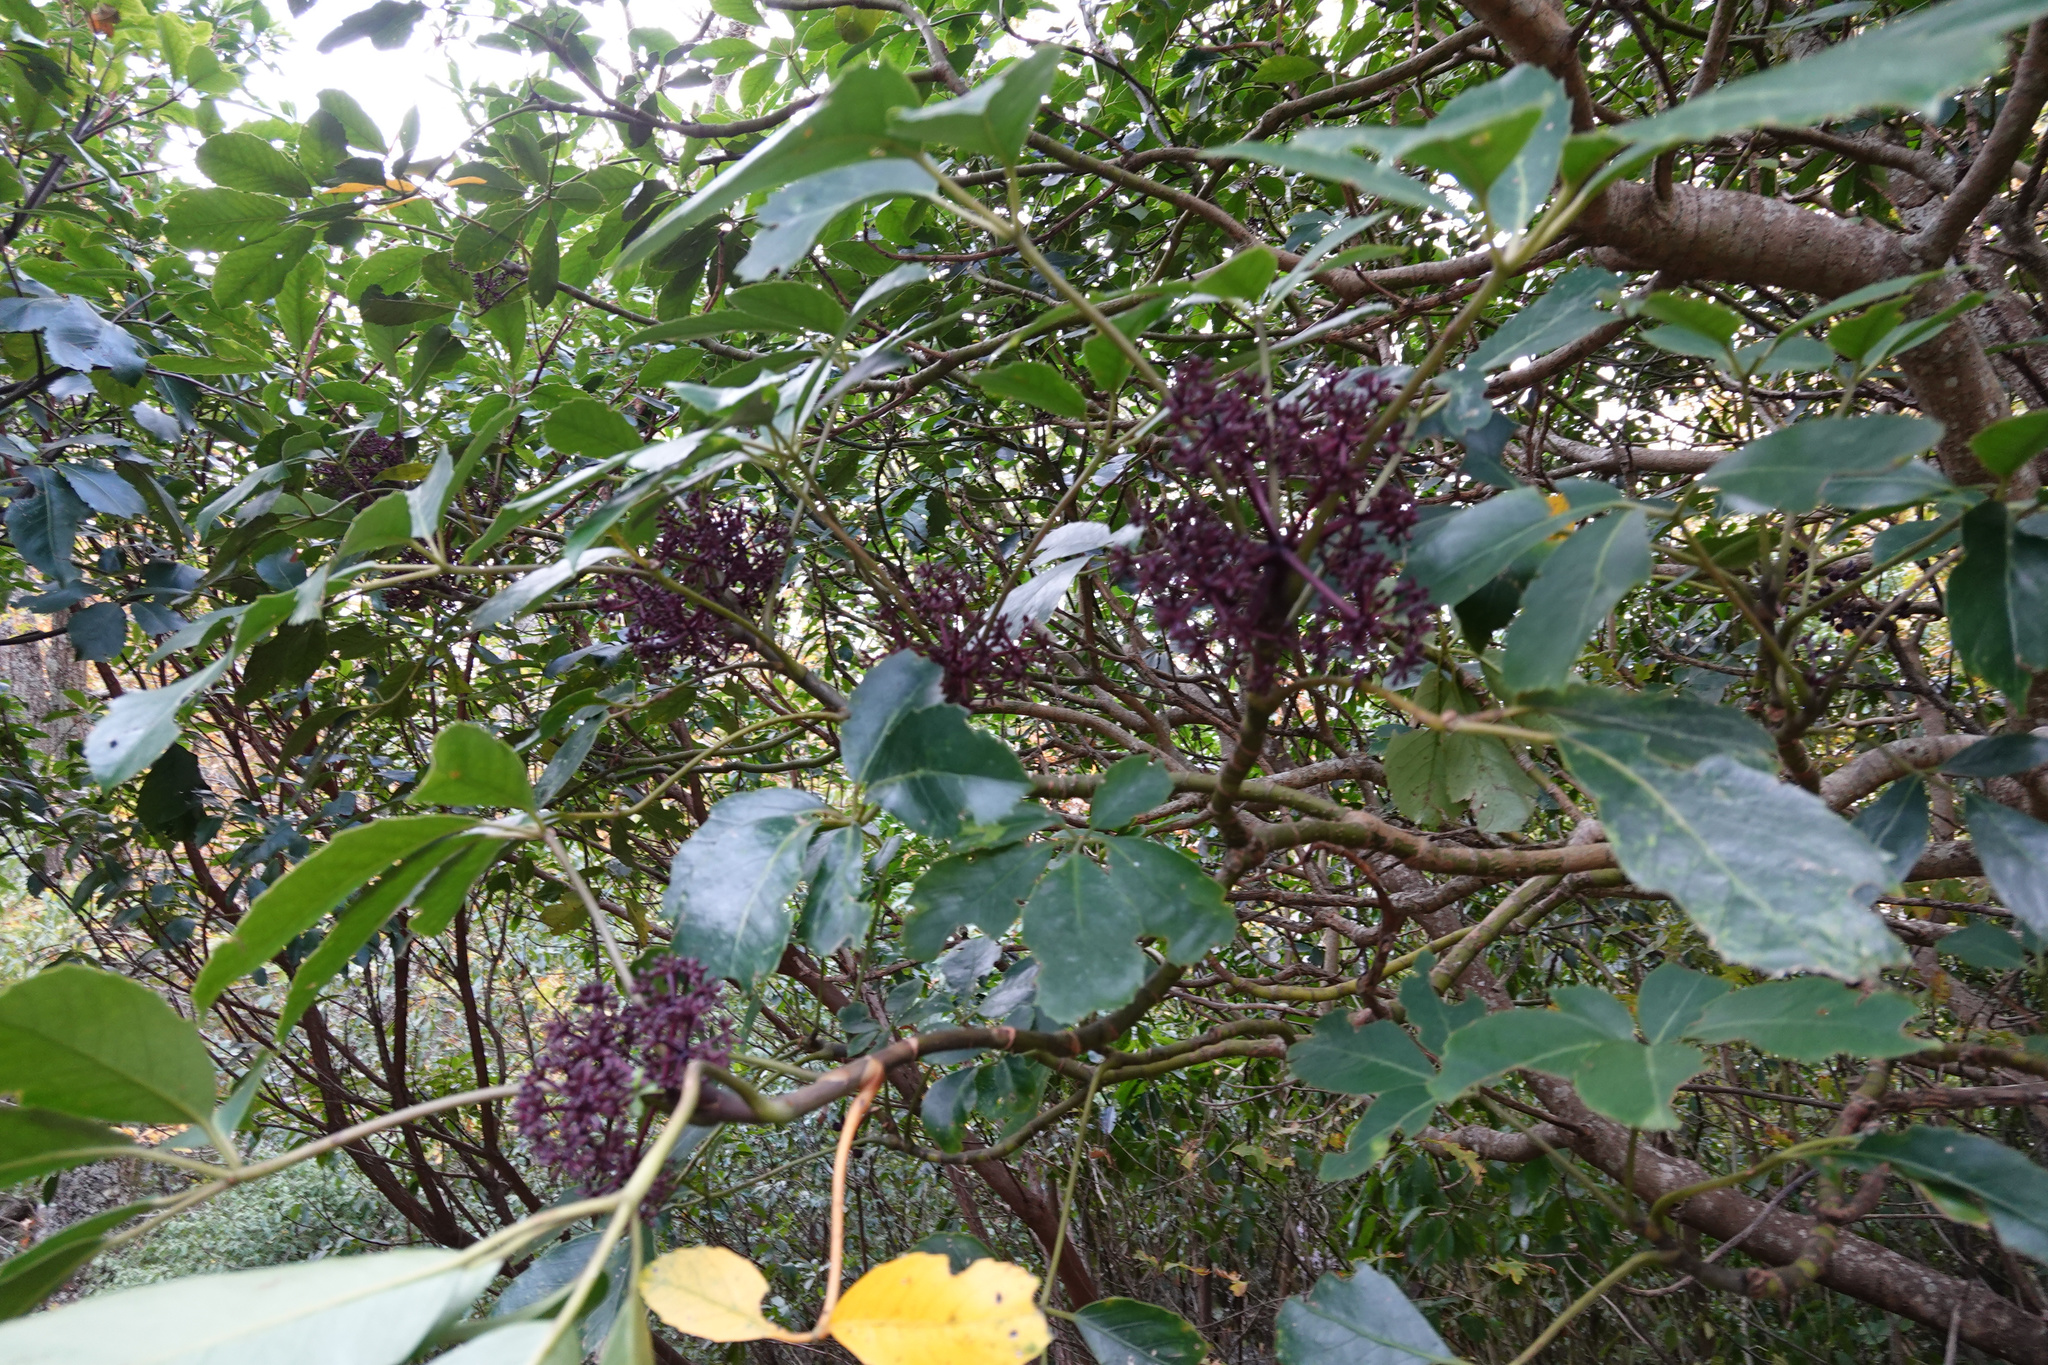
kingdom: Plantae
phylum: Tracheophyta
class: Magnoliopsida
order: Apiales
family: Araliaceae
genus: Neopanax
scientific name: Neopanax arboreus
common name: Five-fingers
